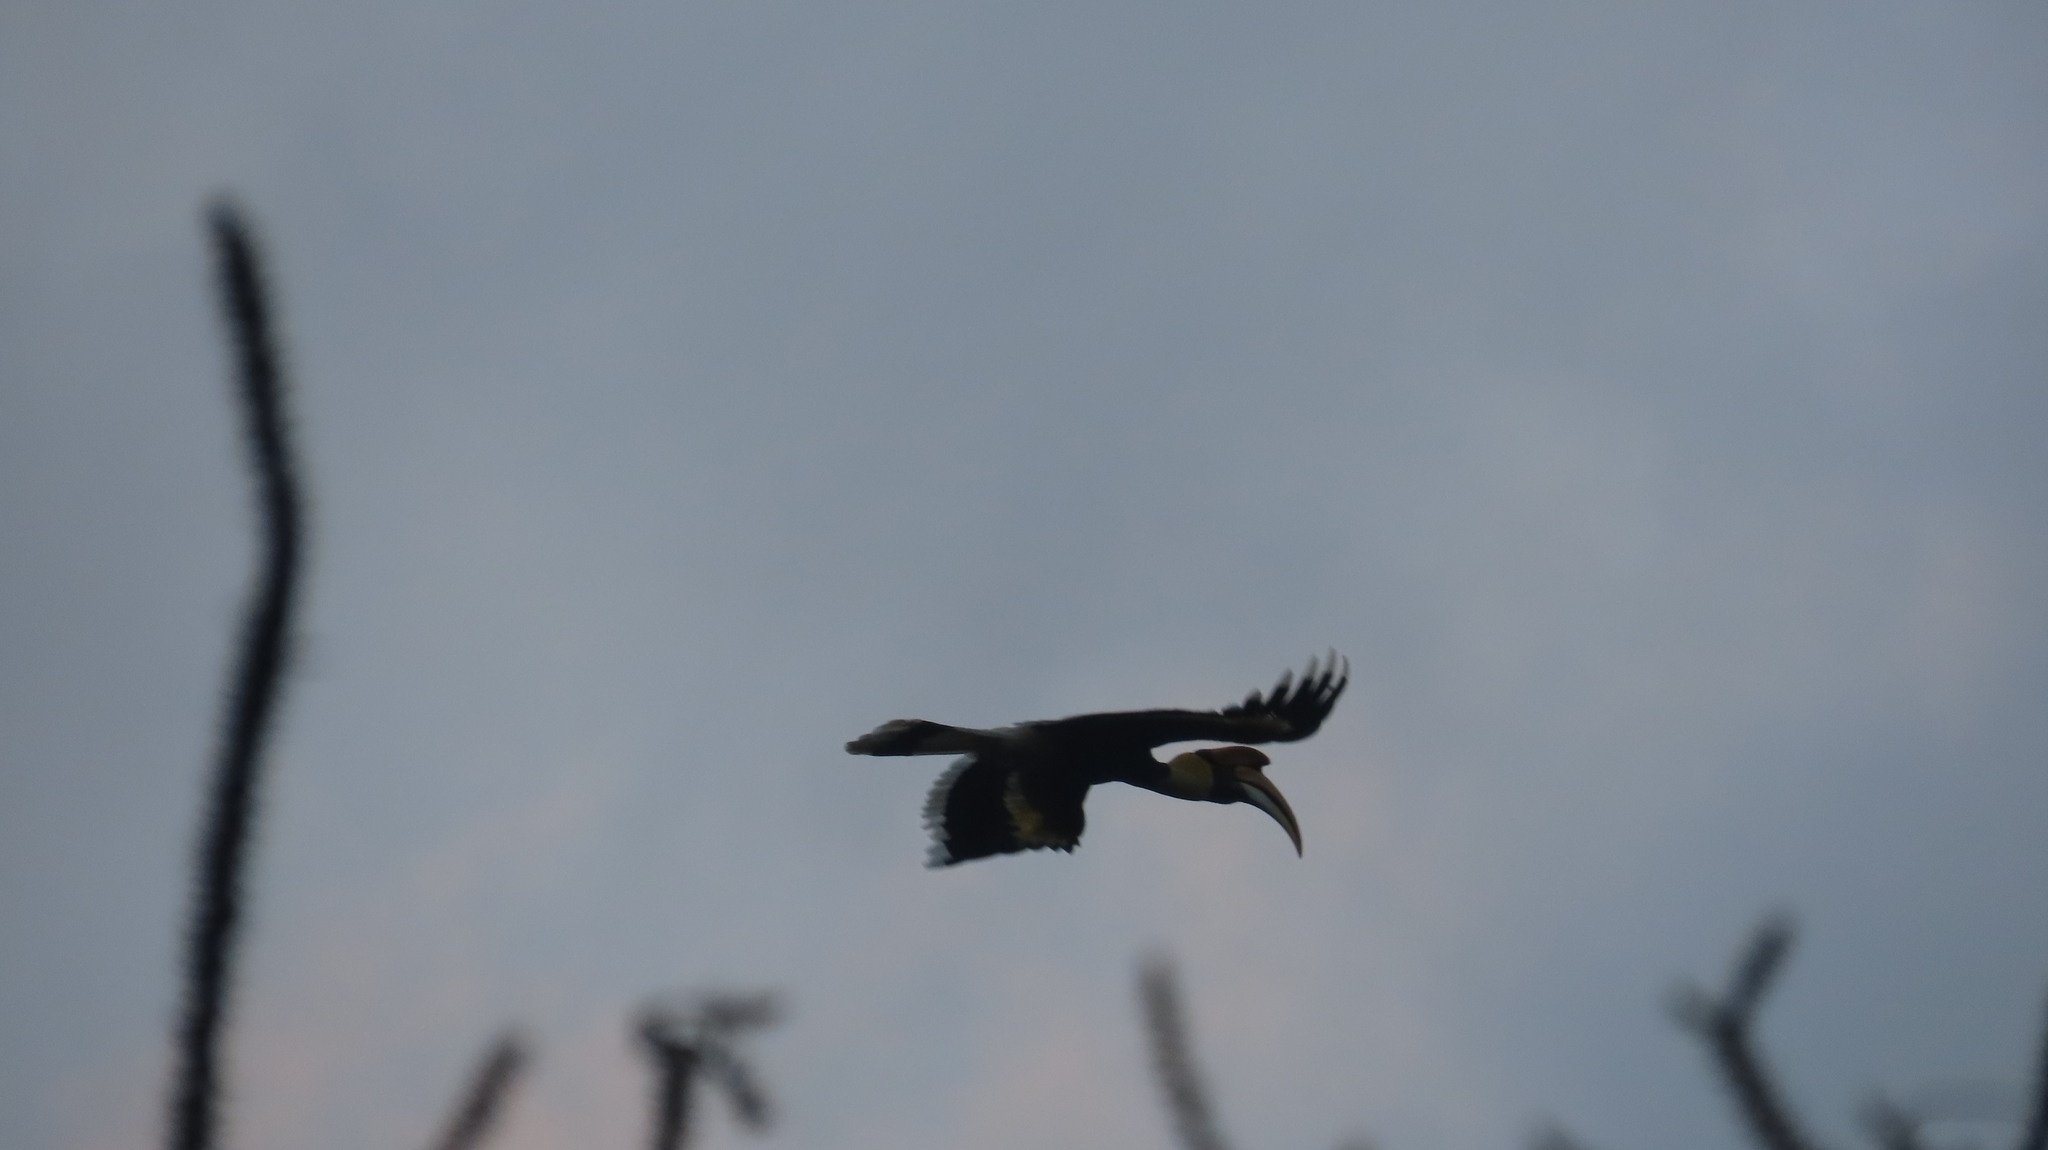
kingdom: Animalia
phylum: Chordata
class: Aves
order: Bucerotiformes
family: Bucerotidae
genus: Buceros
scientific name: Buceros bicornis
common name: Great hornbill
